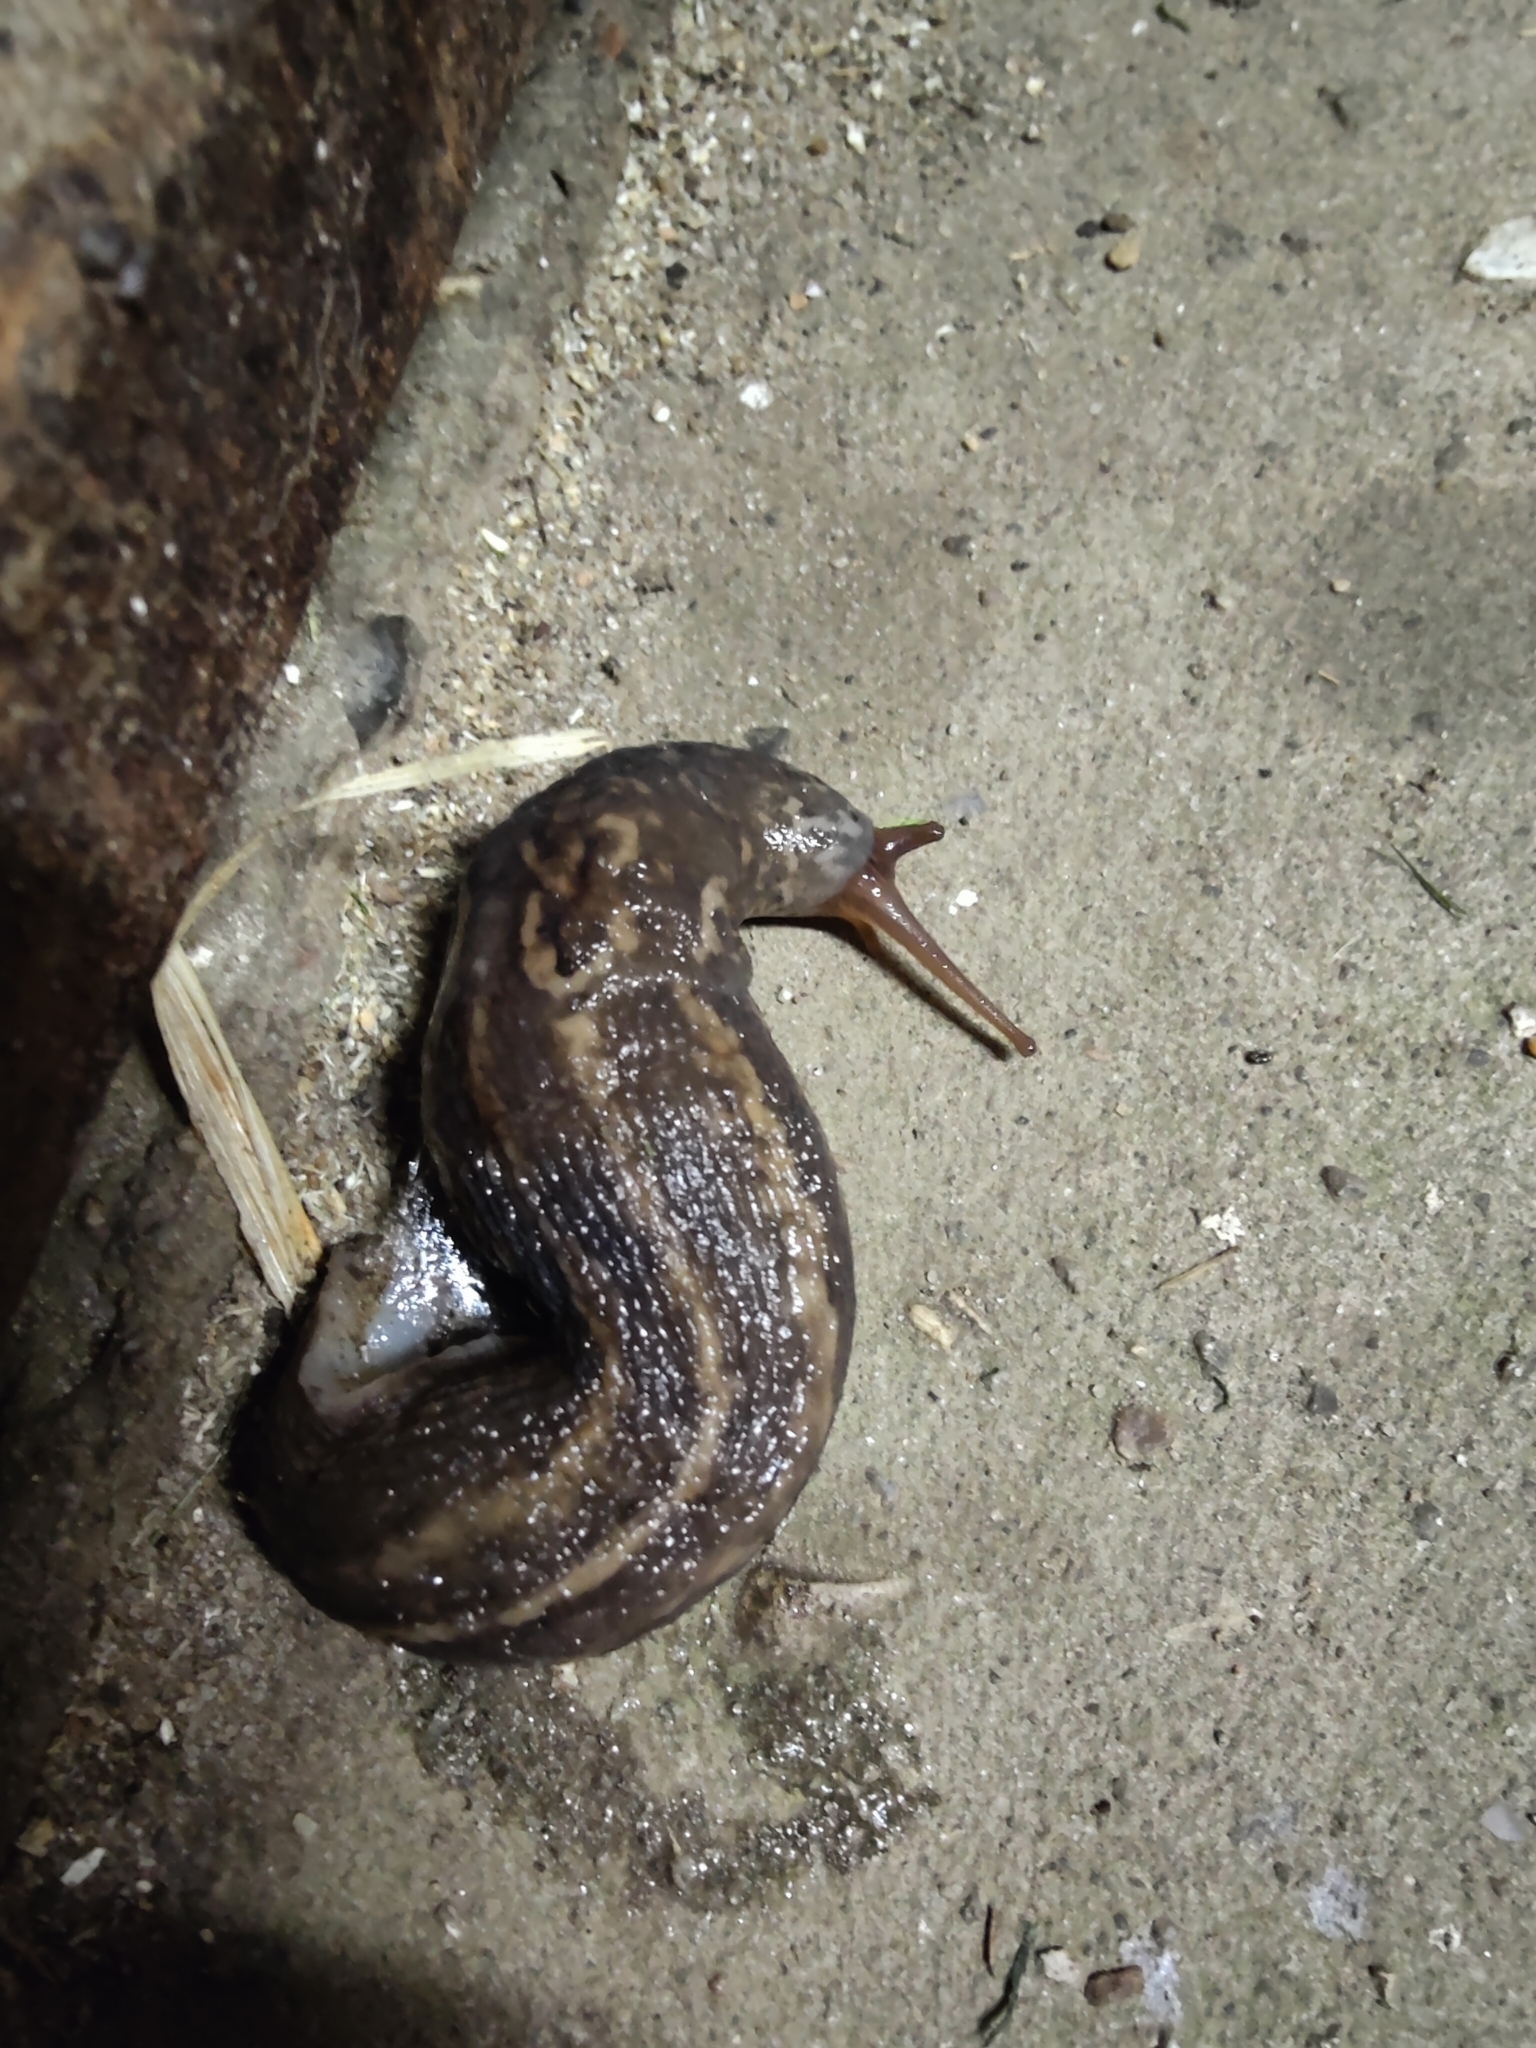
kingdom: Animalia
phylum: Mollusca
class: Gastropoda
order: Stylommatophora
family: Limacidae
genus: Limax
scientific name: Limax maximus
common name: Great grey slug
